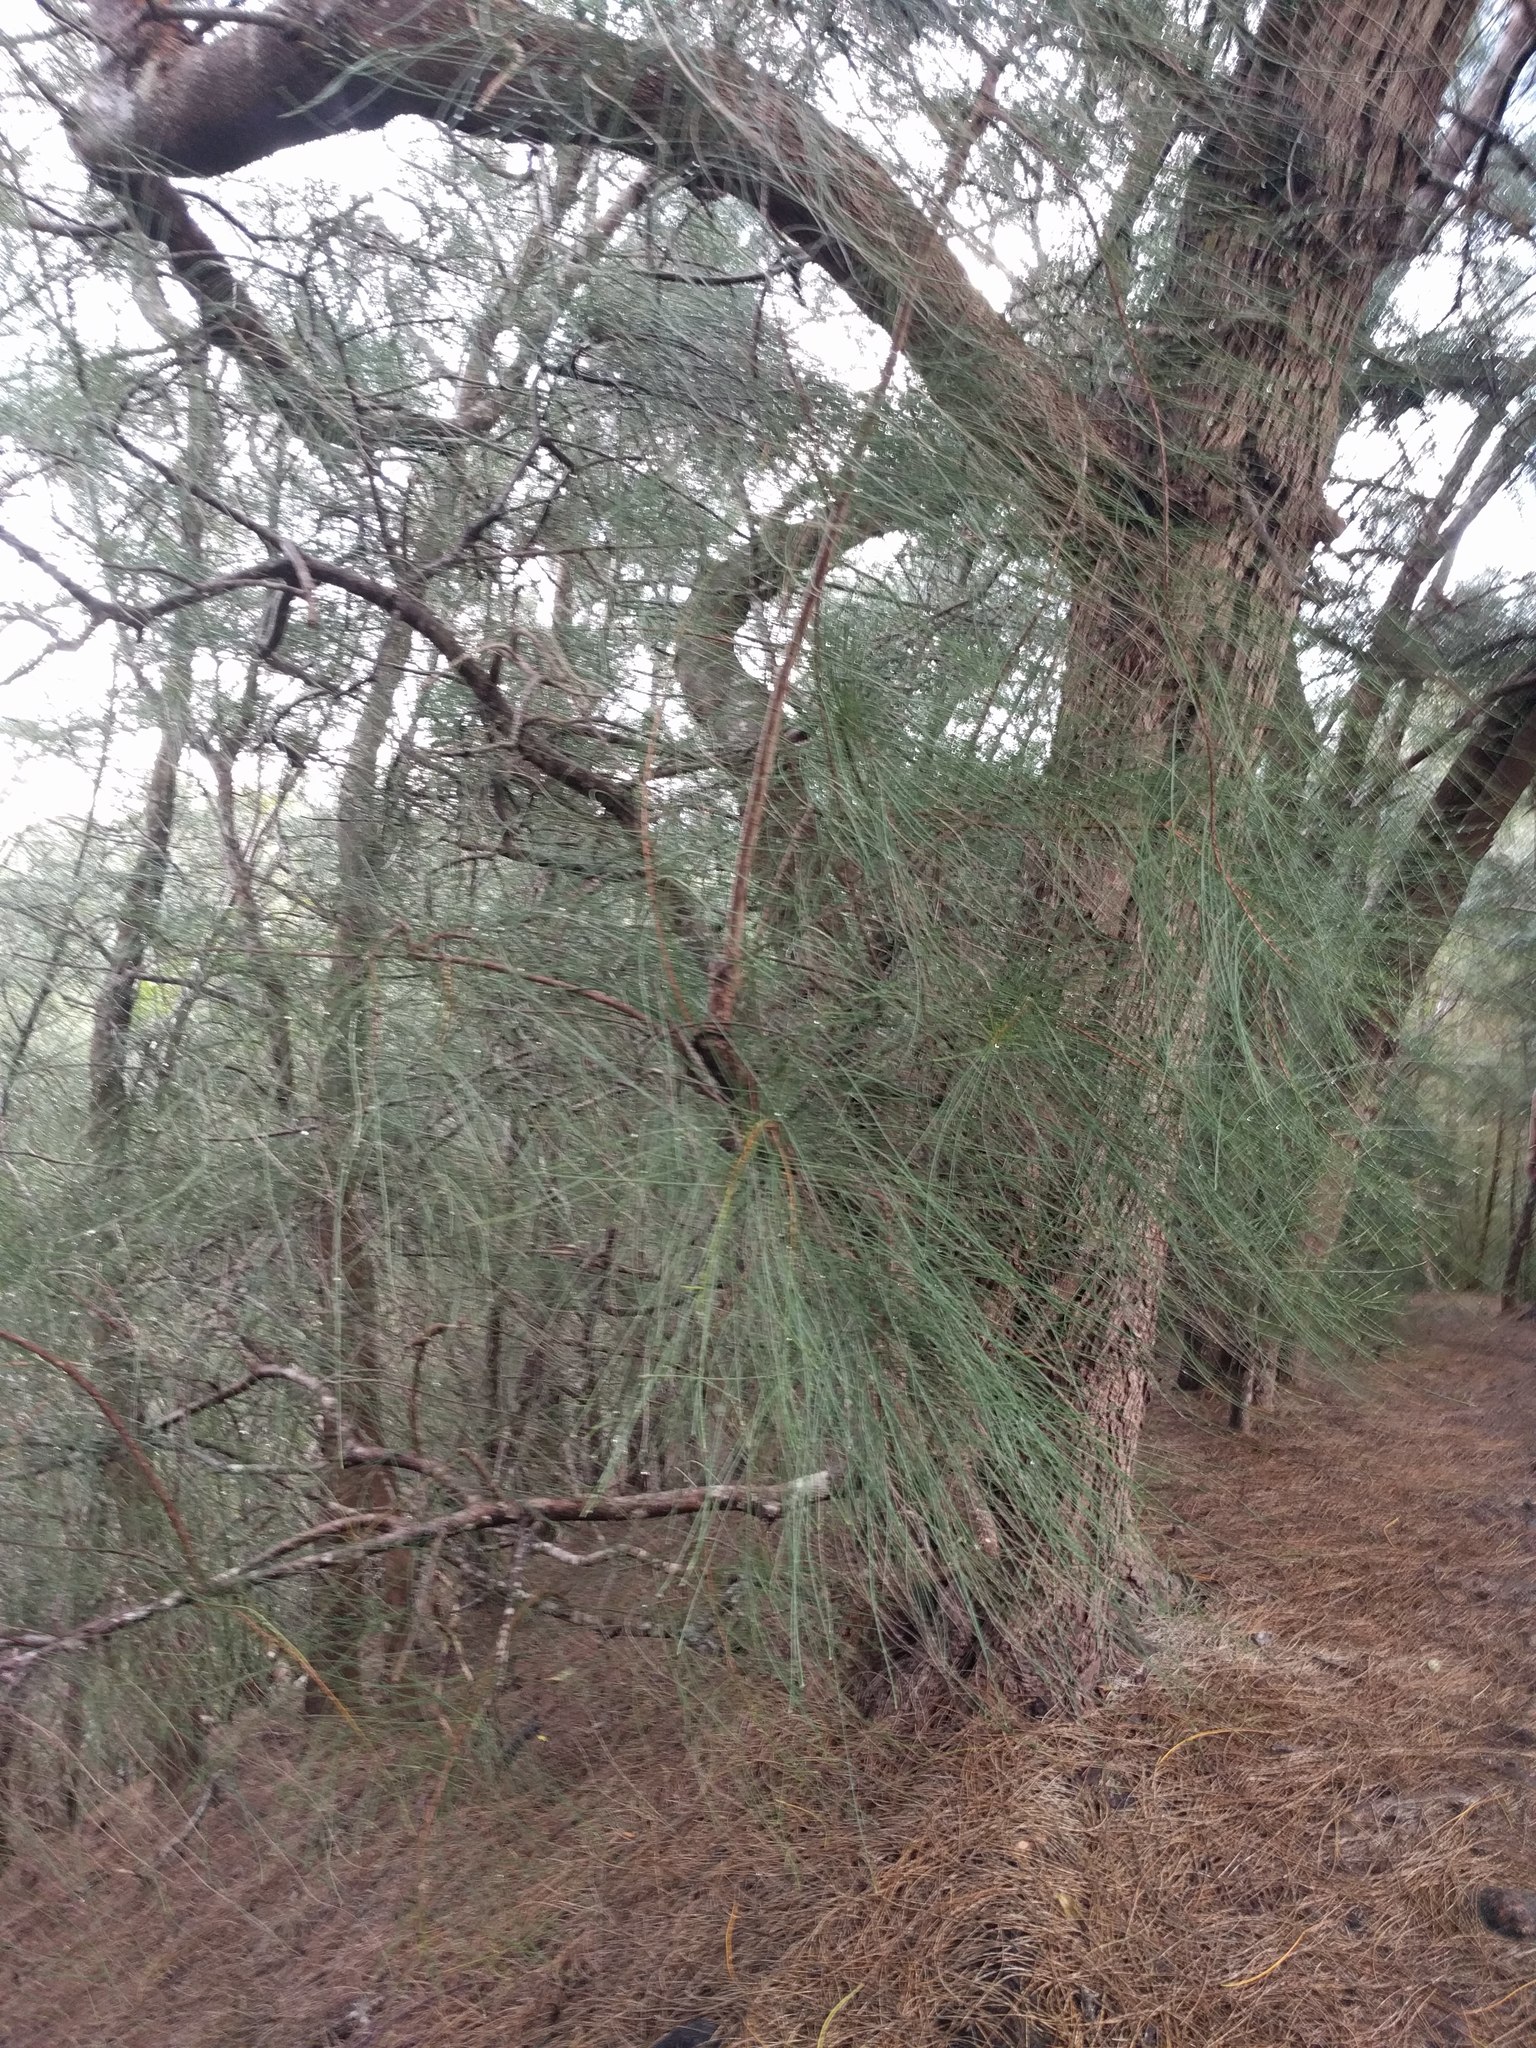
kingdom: Plantae
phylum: Tracheophyta
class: Magnoliopsida
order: Fagales
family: Casuarinaceae
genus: Casuarina
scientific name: Casuarina equisetifolia
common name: Beach sheoak
